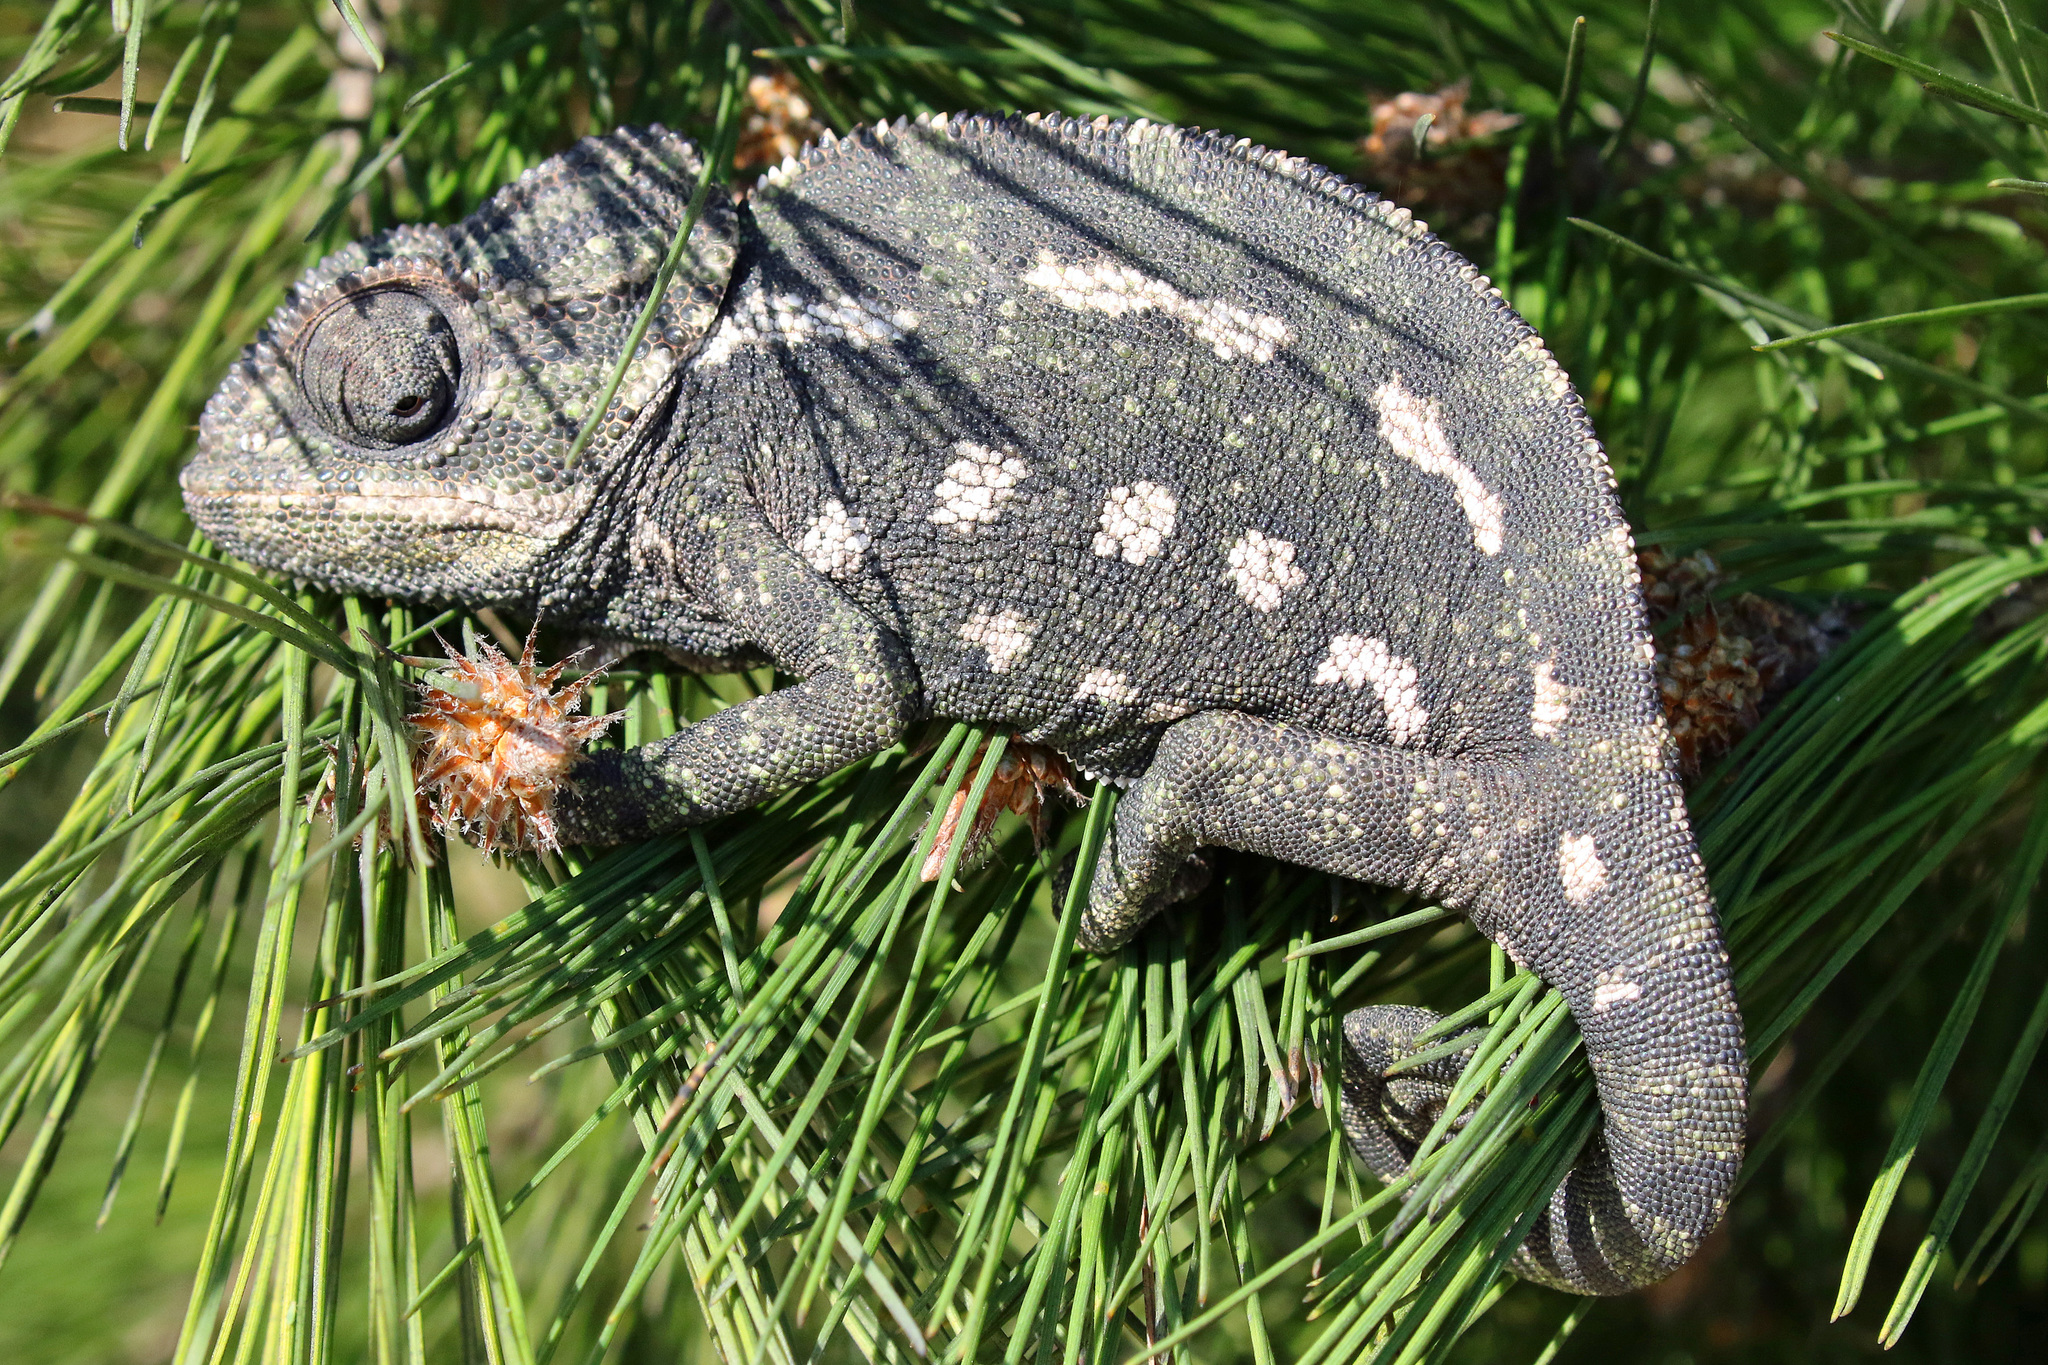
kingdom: Animalia
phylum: Chordata
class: Squamata
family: Chamaeleonidae
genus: Chamaeleo
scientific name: Chamaeleo chamaeleon
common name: Mediterranean chameleon
